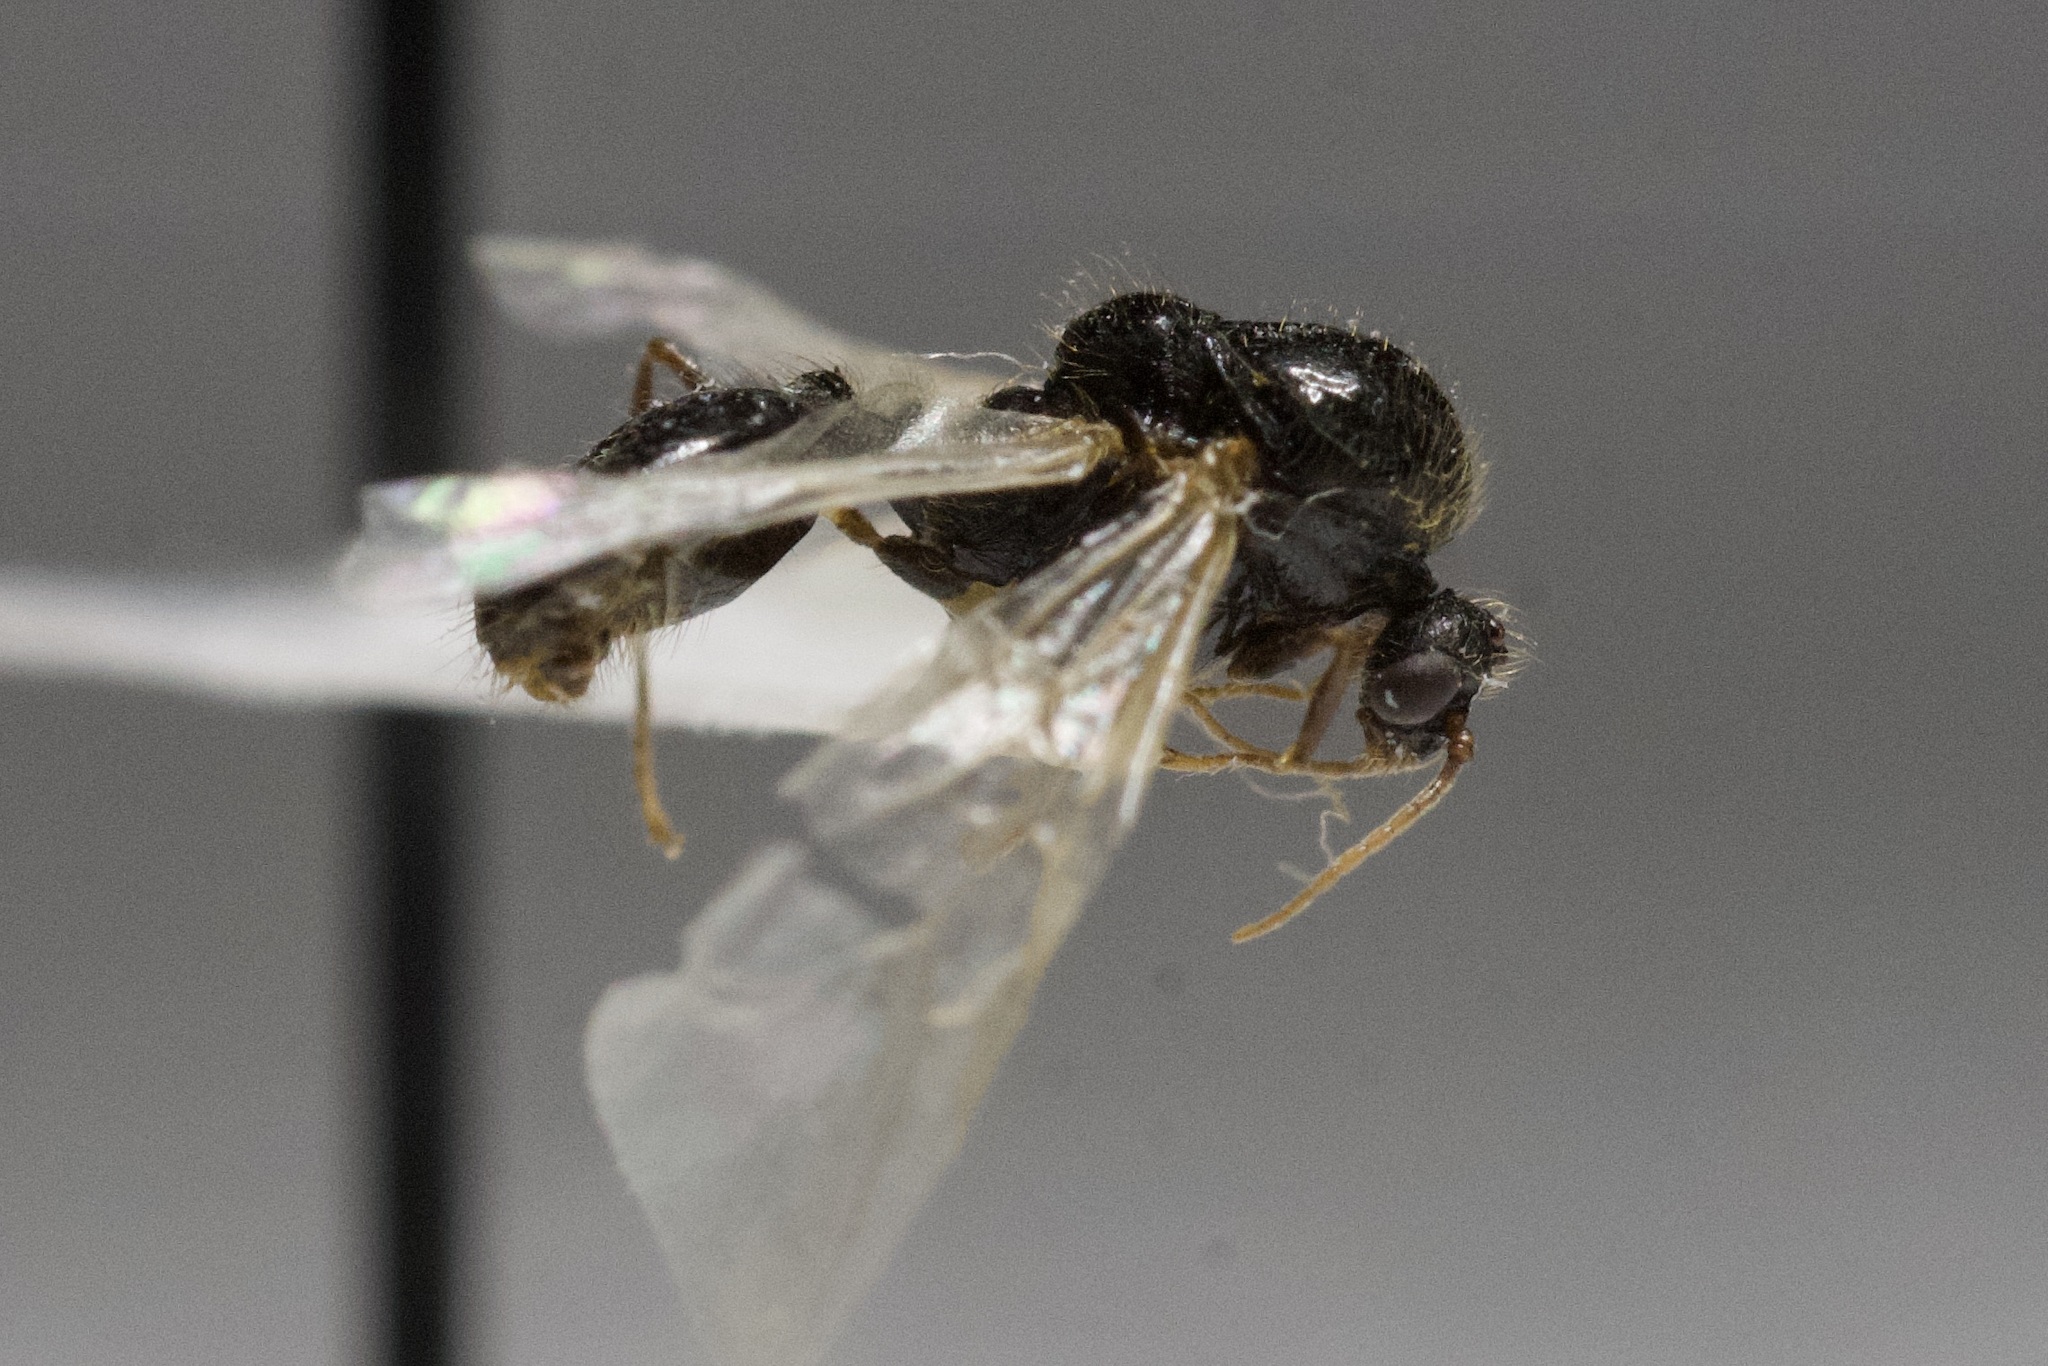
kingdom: Animalia
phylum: Arthropoda
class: Insecta
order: Hymenoptera
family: Formicidae
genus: Solenopsis
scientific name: Solenopsis invicta
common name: Red imported fire ant
